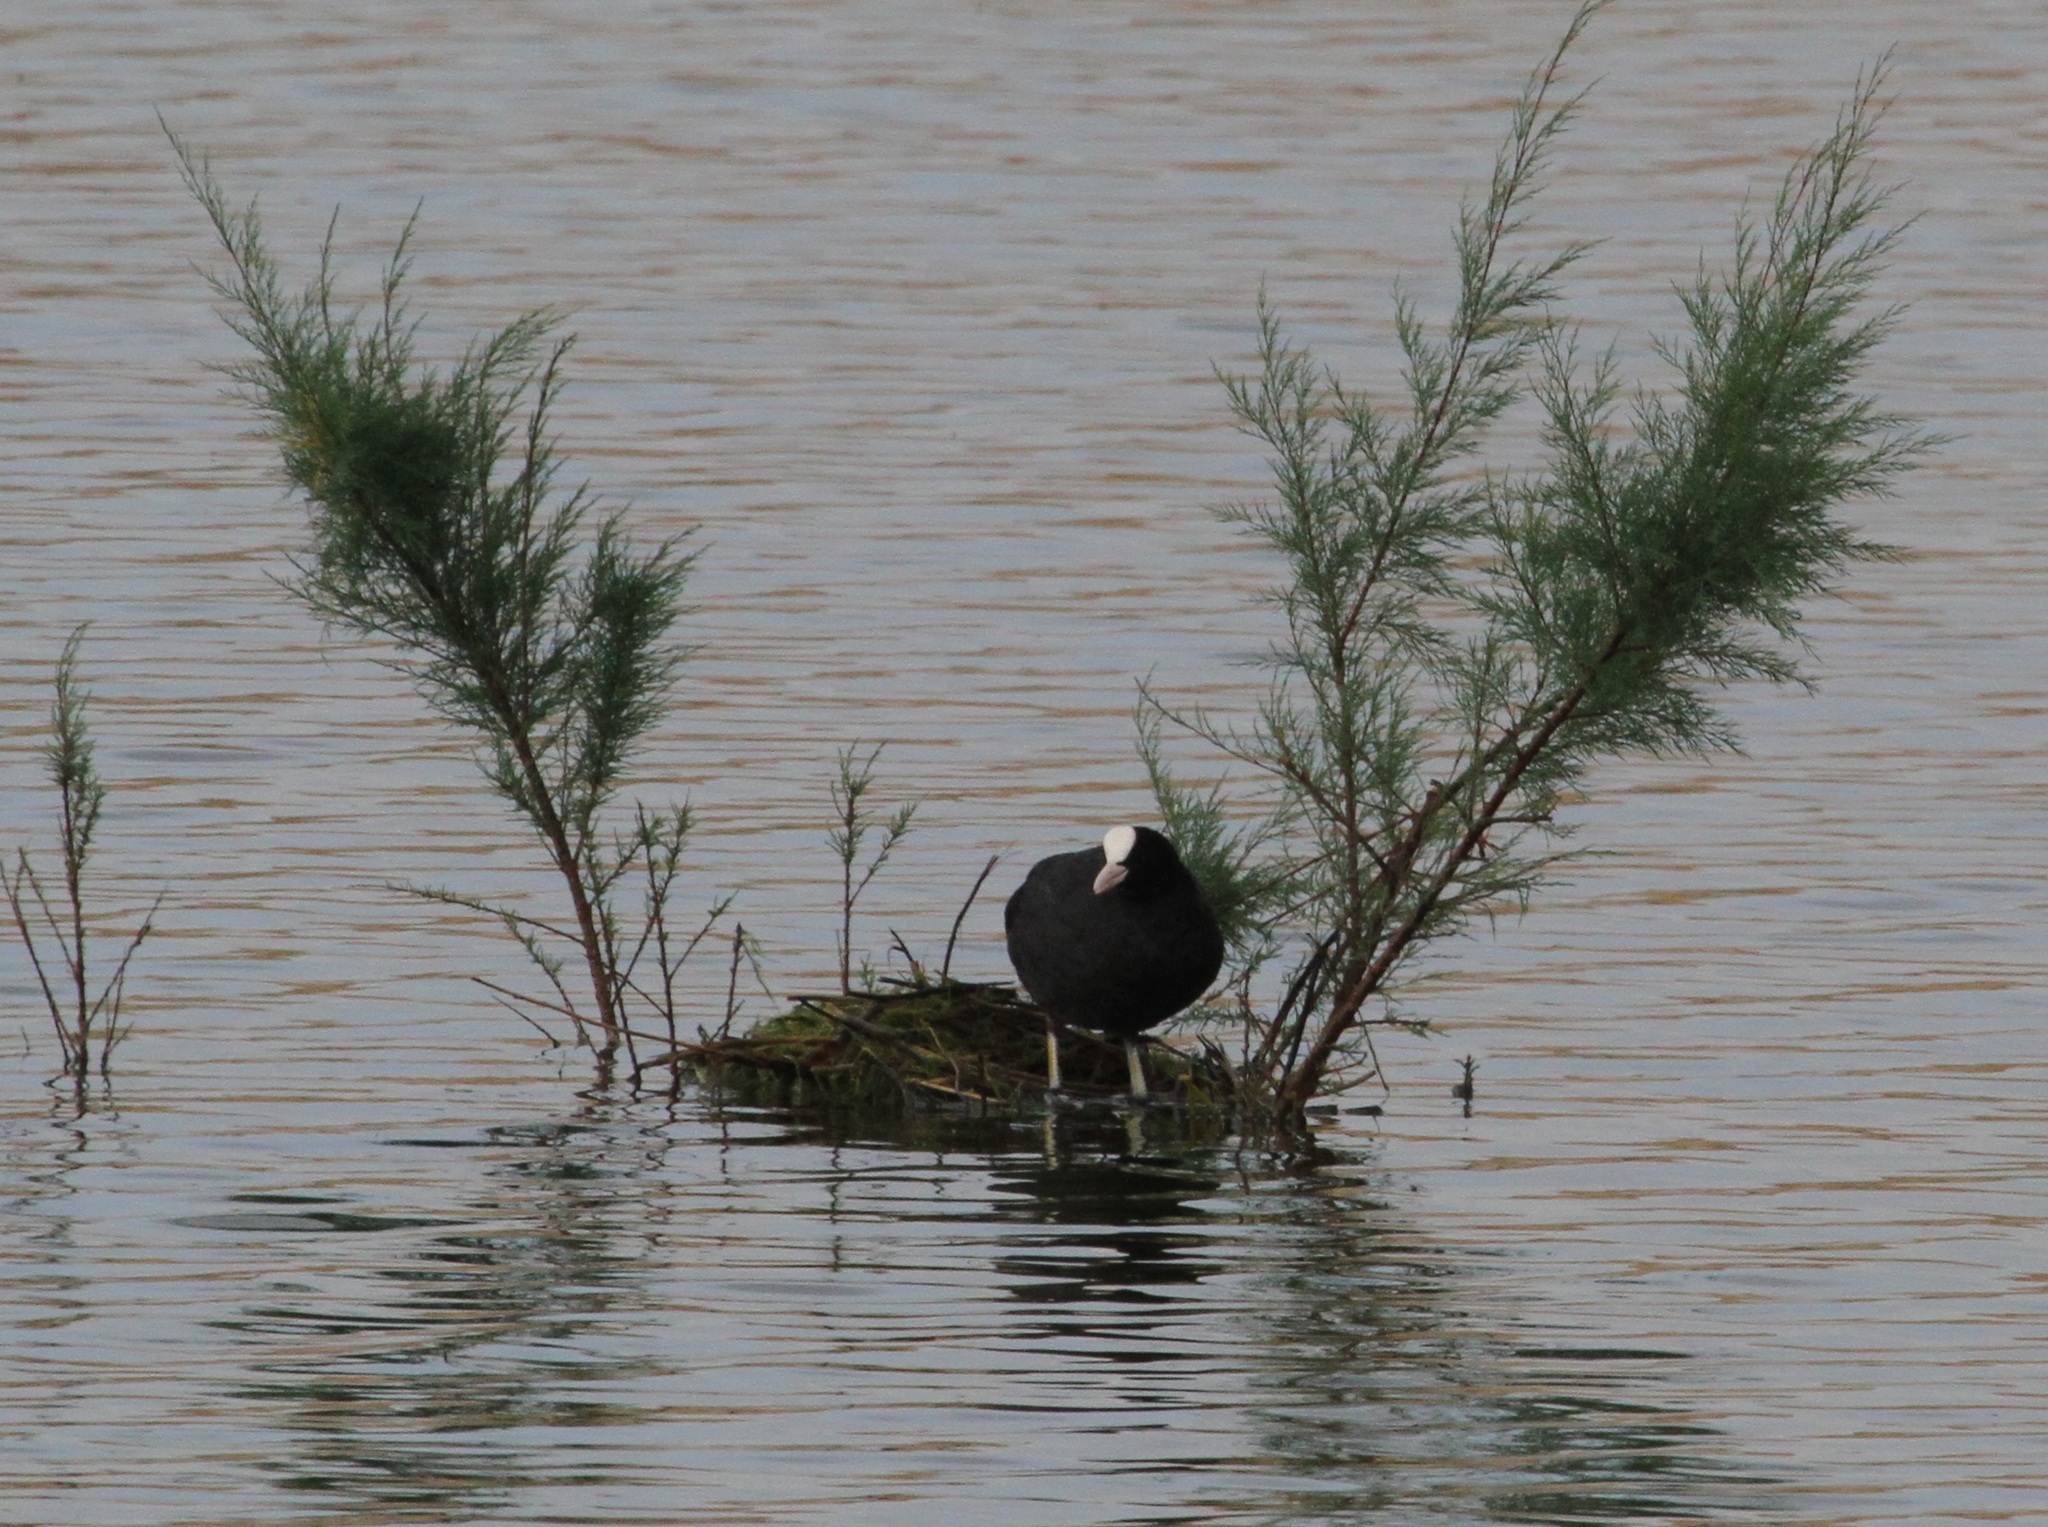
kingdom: Animalia
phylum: Chordata
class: Aves
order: Gruiformes
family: Rallidae
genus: Fulica
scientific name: Fulica atra
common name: Eurasian coot
